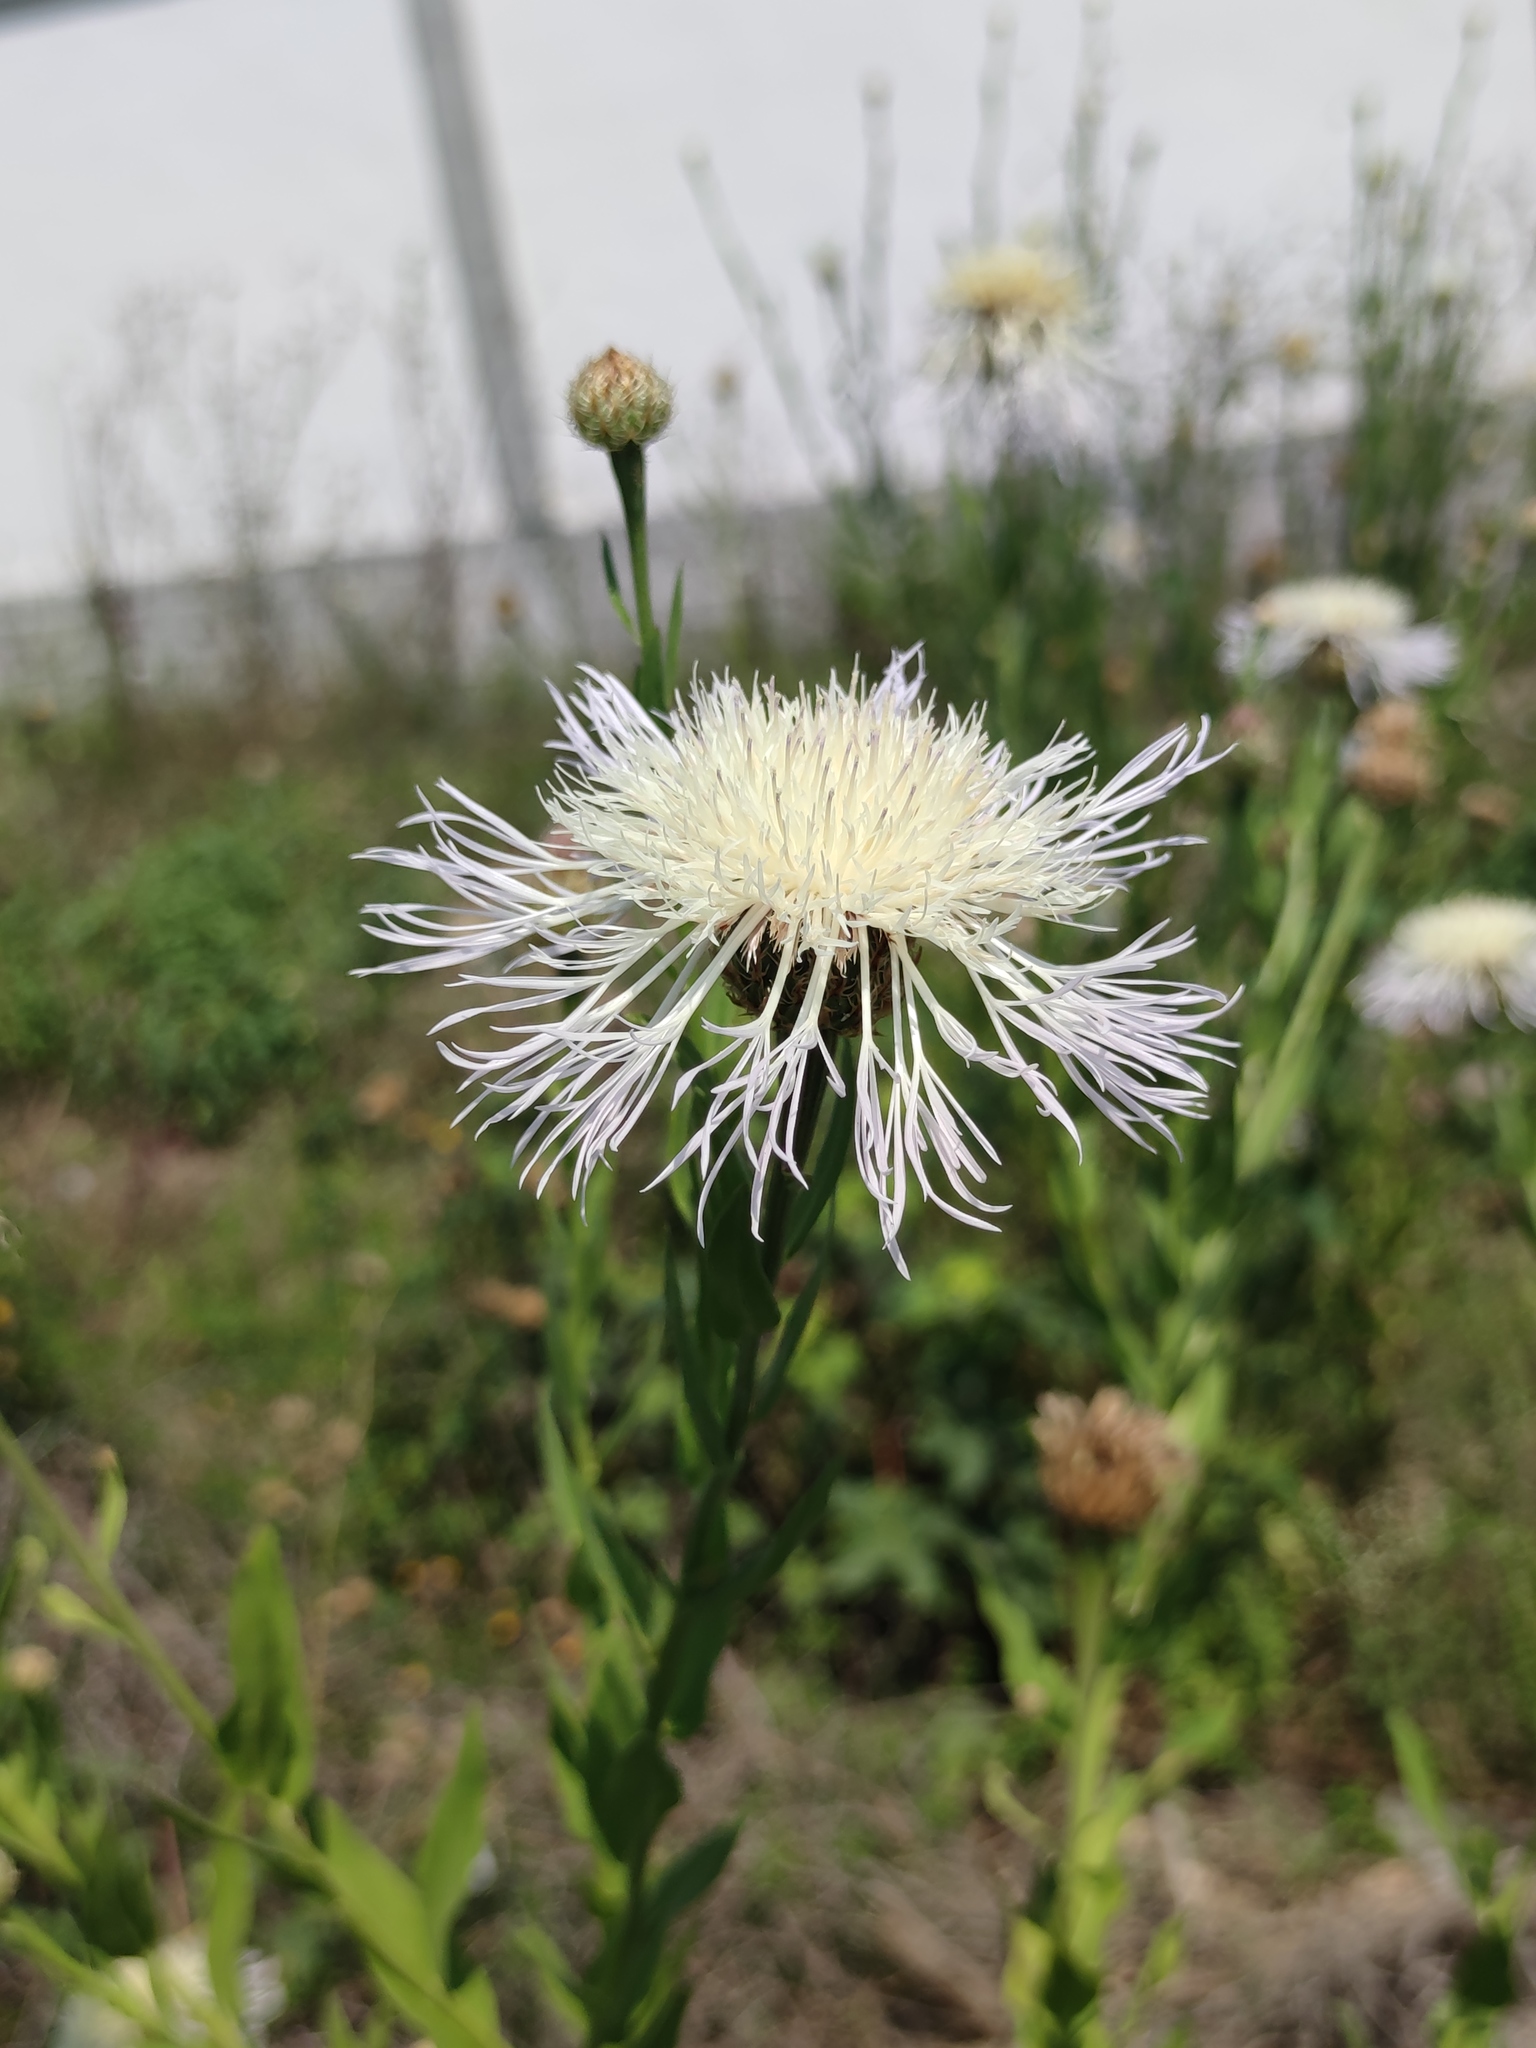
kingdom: Plantae
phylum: Tracheophyta
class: Magnoliopsida
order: Asterales
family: Asteraceae
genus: Plectocephalus
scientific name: Plectocephalus americanus
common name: American basket-flower
